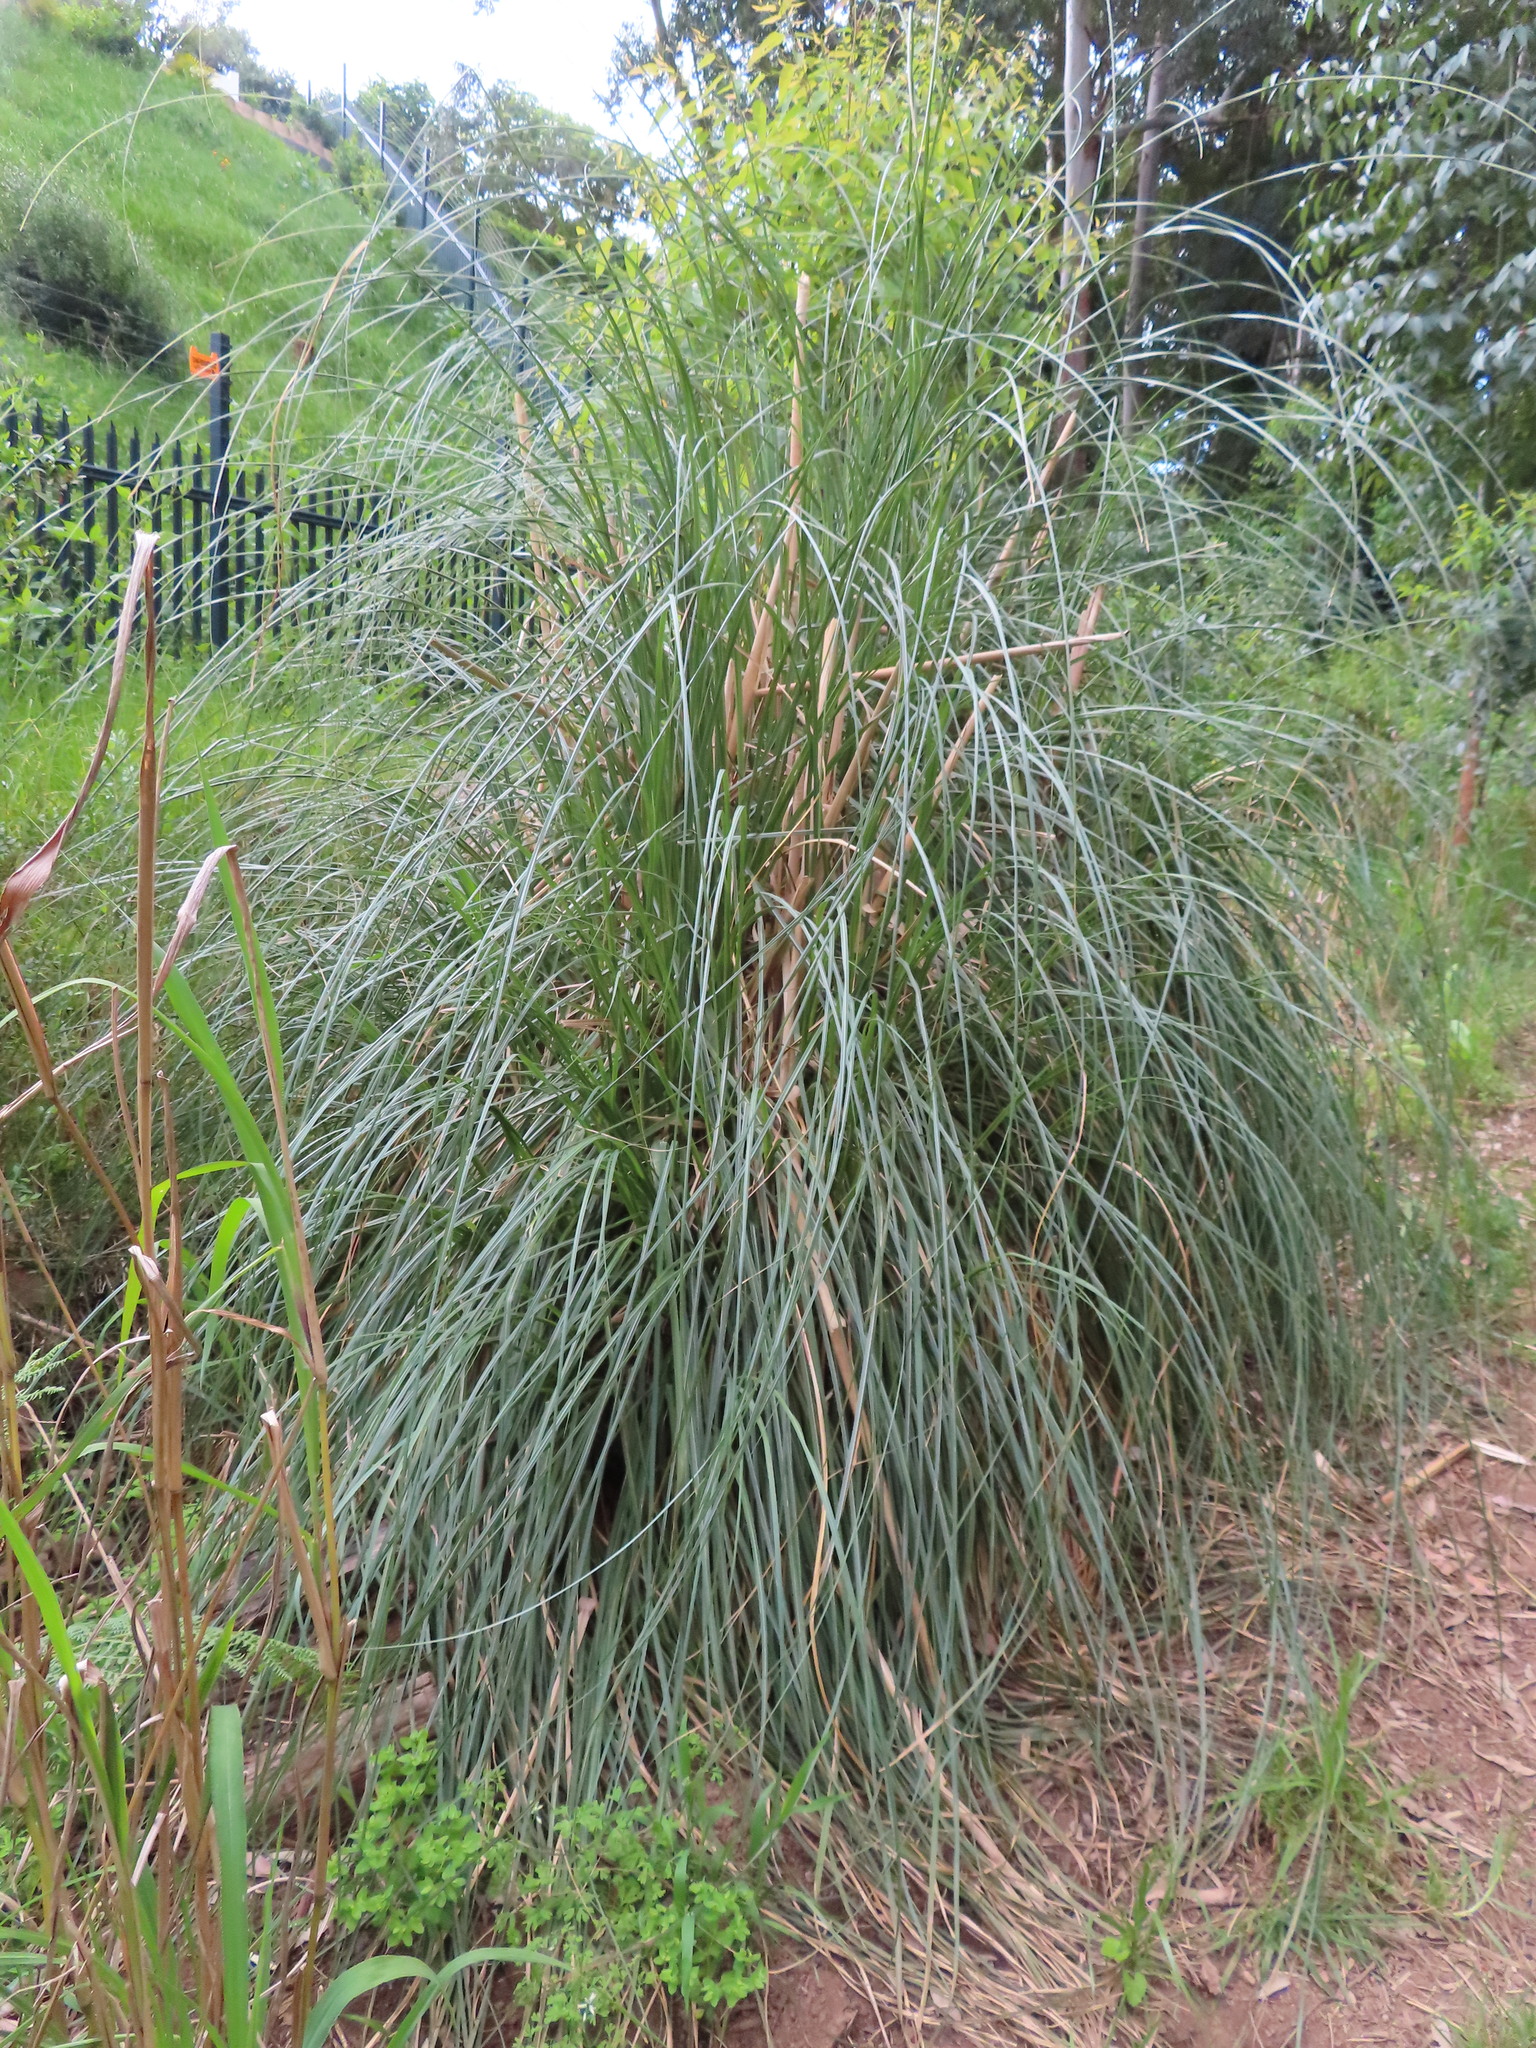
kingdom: Plantae
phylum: Tracheophyta
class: Liliopsida
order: Poales
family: Poaceae
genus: Cortaderia
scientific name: Cortaderia selloana
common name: Uruguayan pampas grass
